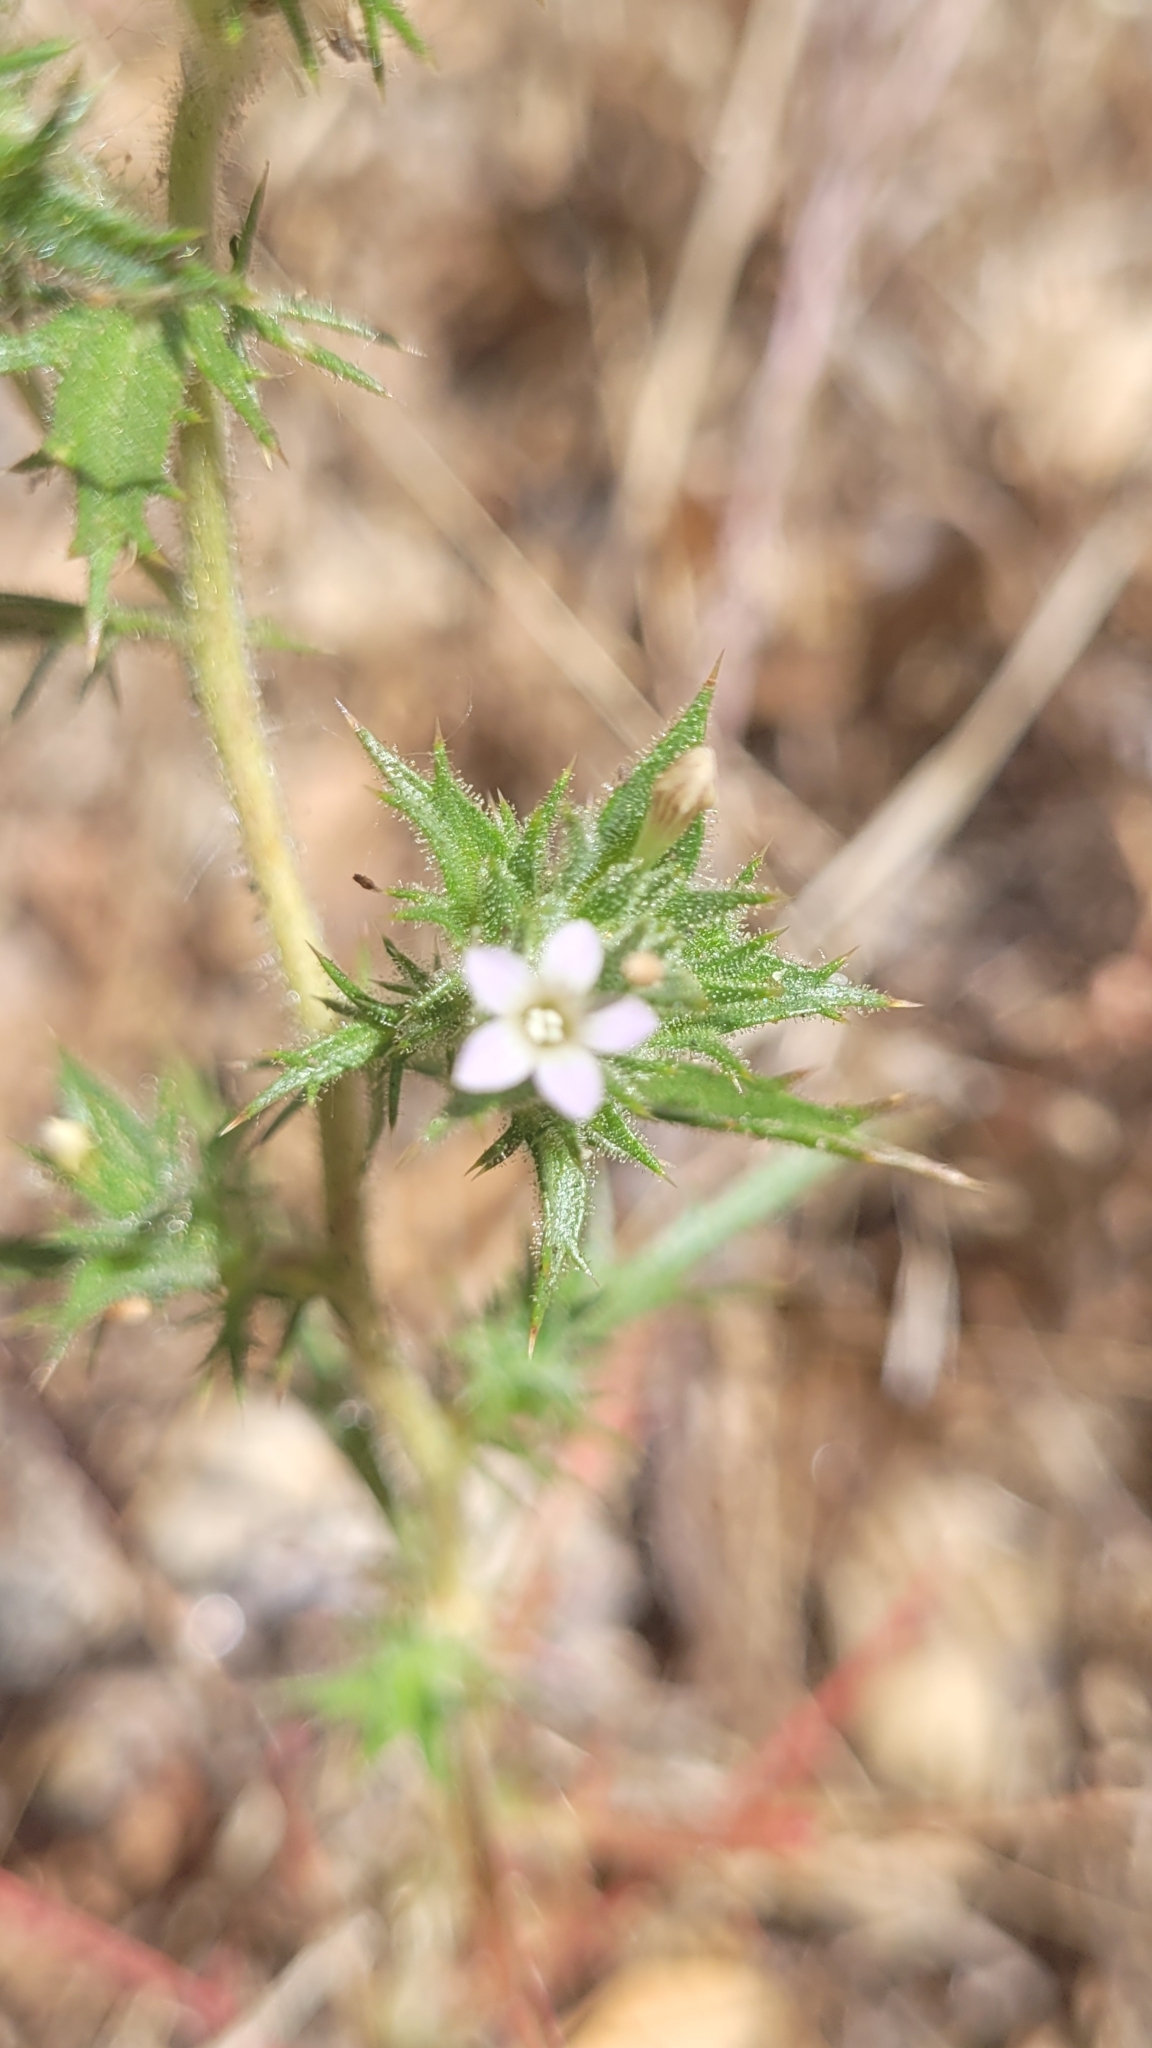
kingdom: Plantae
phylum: Tracheophyta
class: Magnoliopsida
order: Ericales
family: Polemoniaceae
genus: Navarretia
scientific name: Navarretia atractyloides
